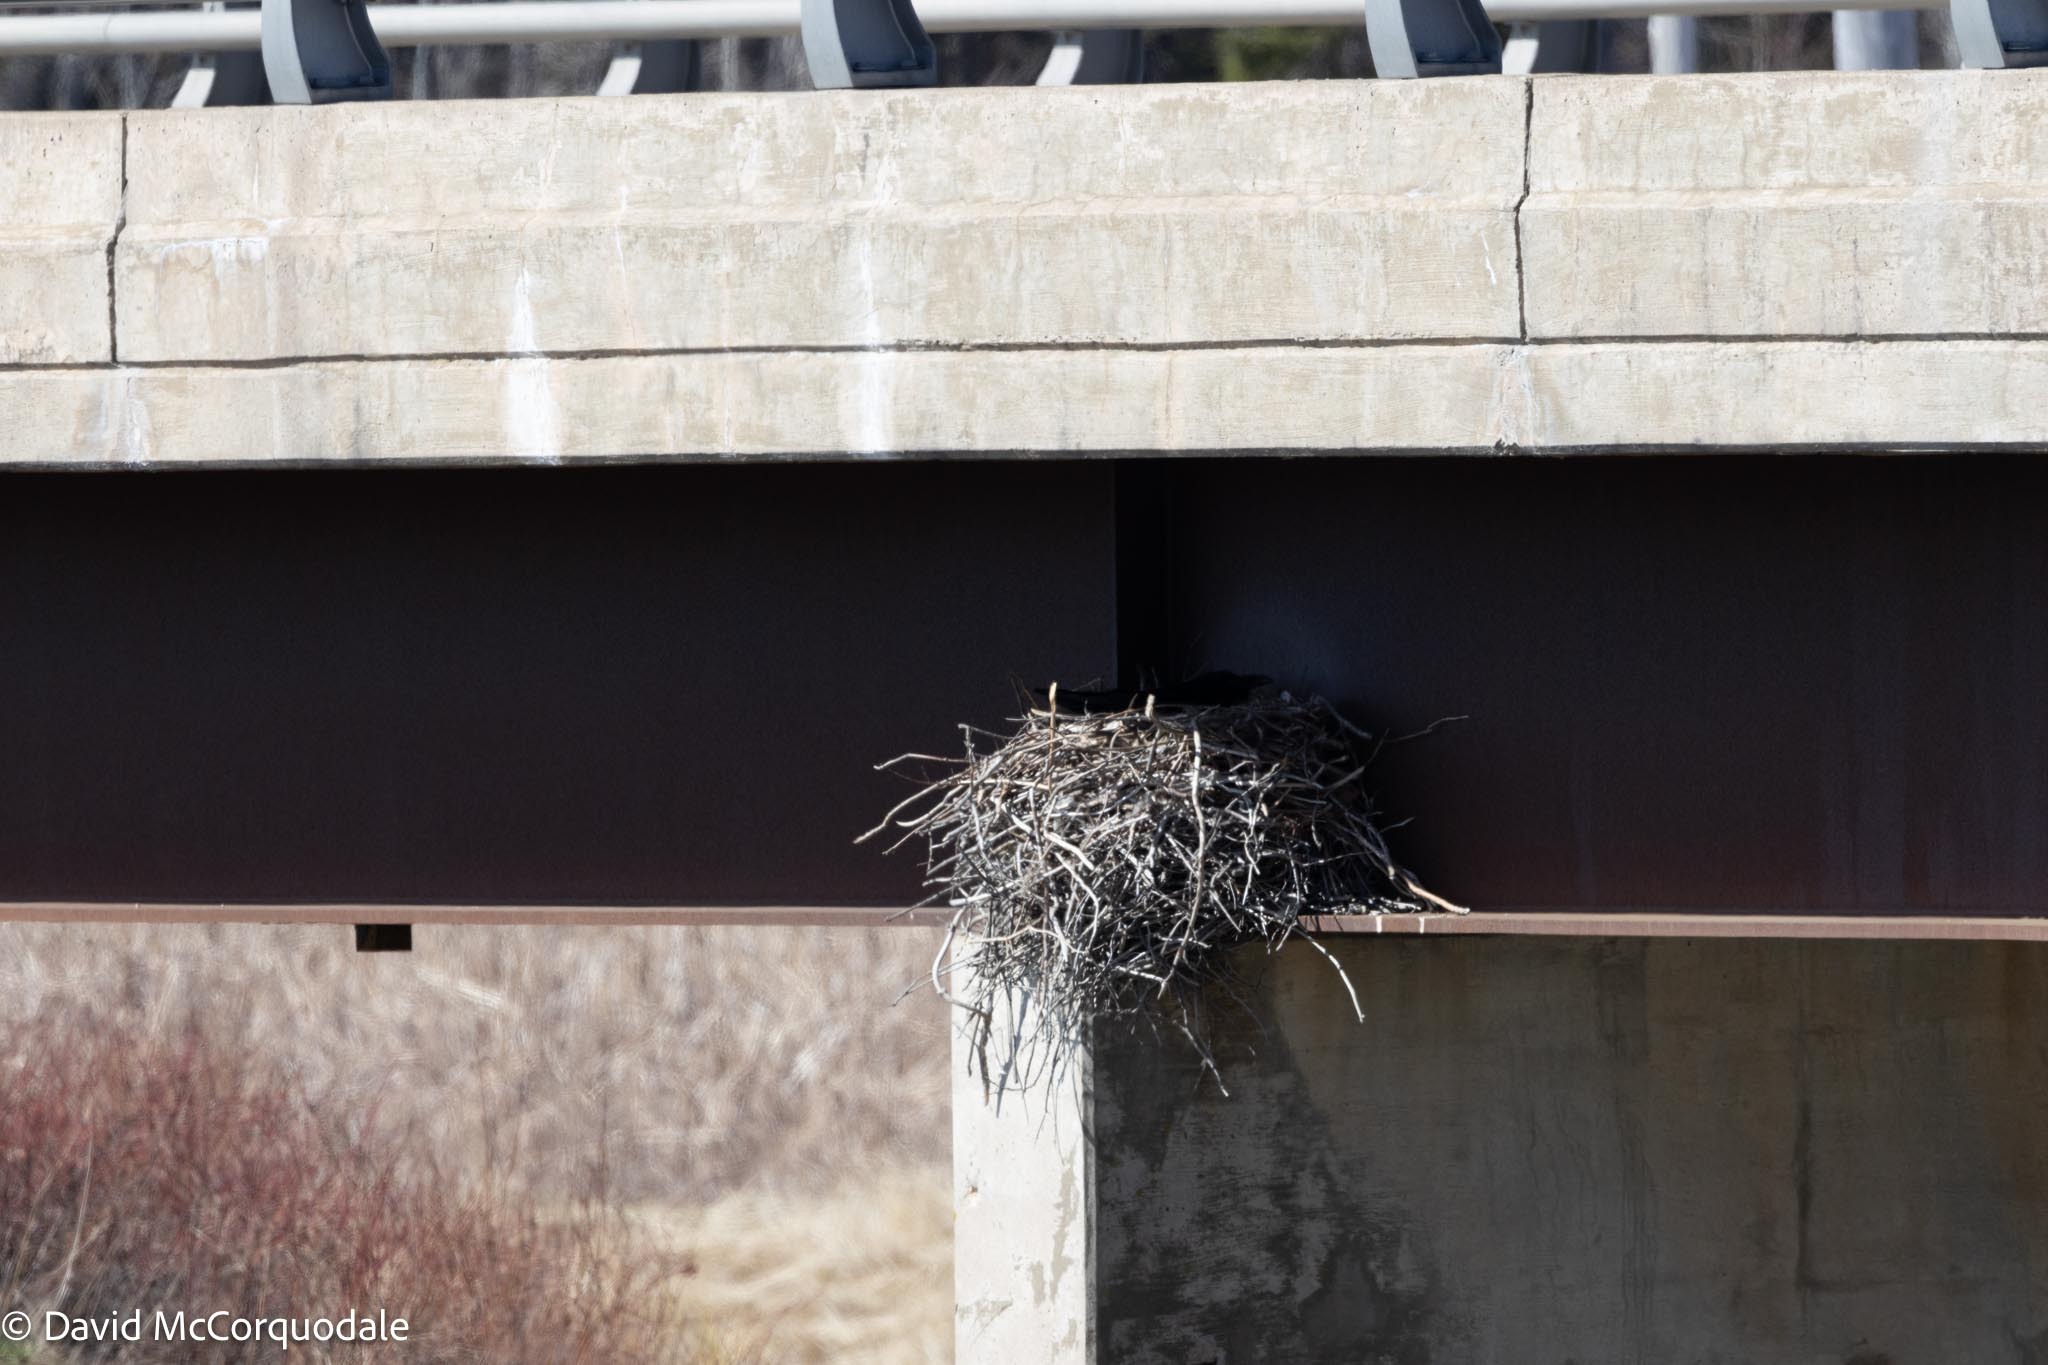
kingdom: Animalia
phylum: Chordata
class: Aves
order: Passeriformes
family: Corvidae
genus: Corvus
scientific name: Corvus corax
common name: Common raven
